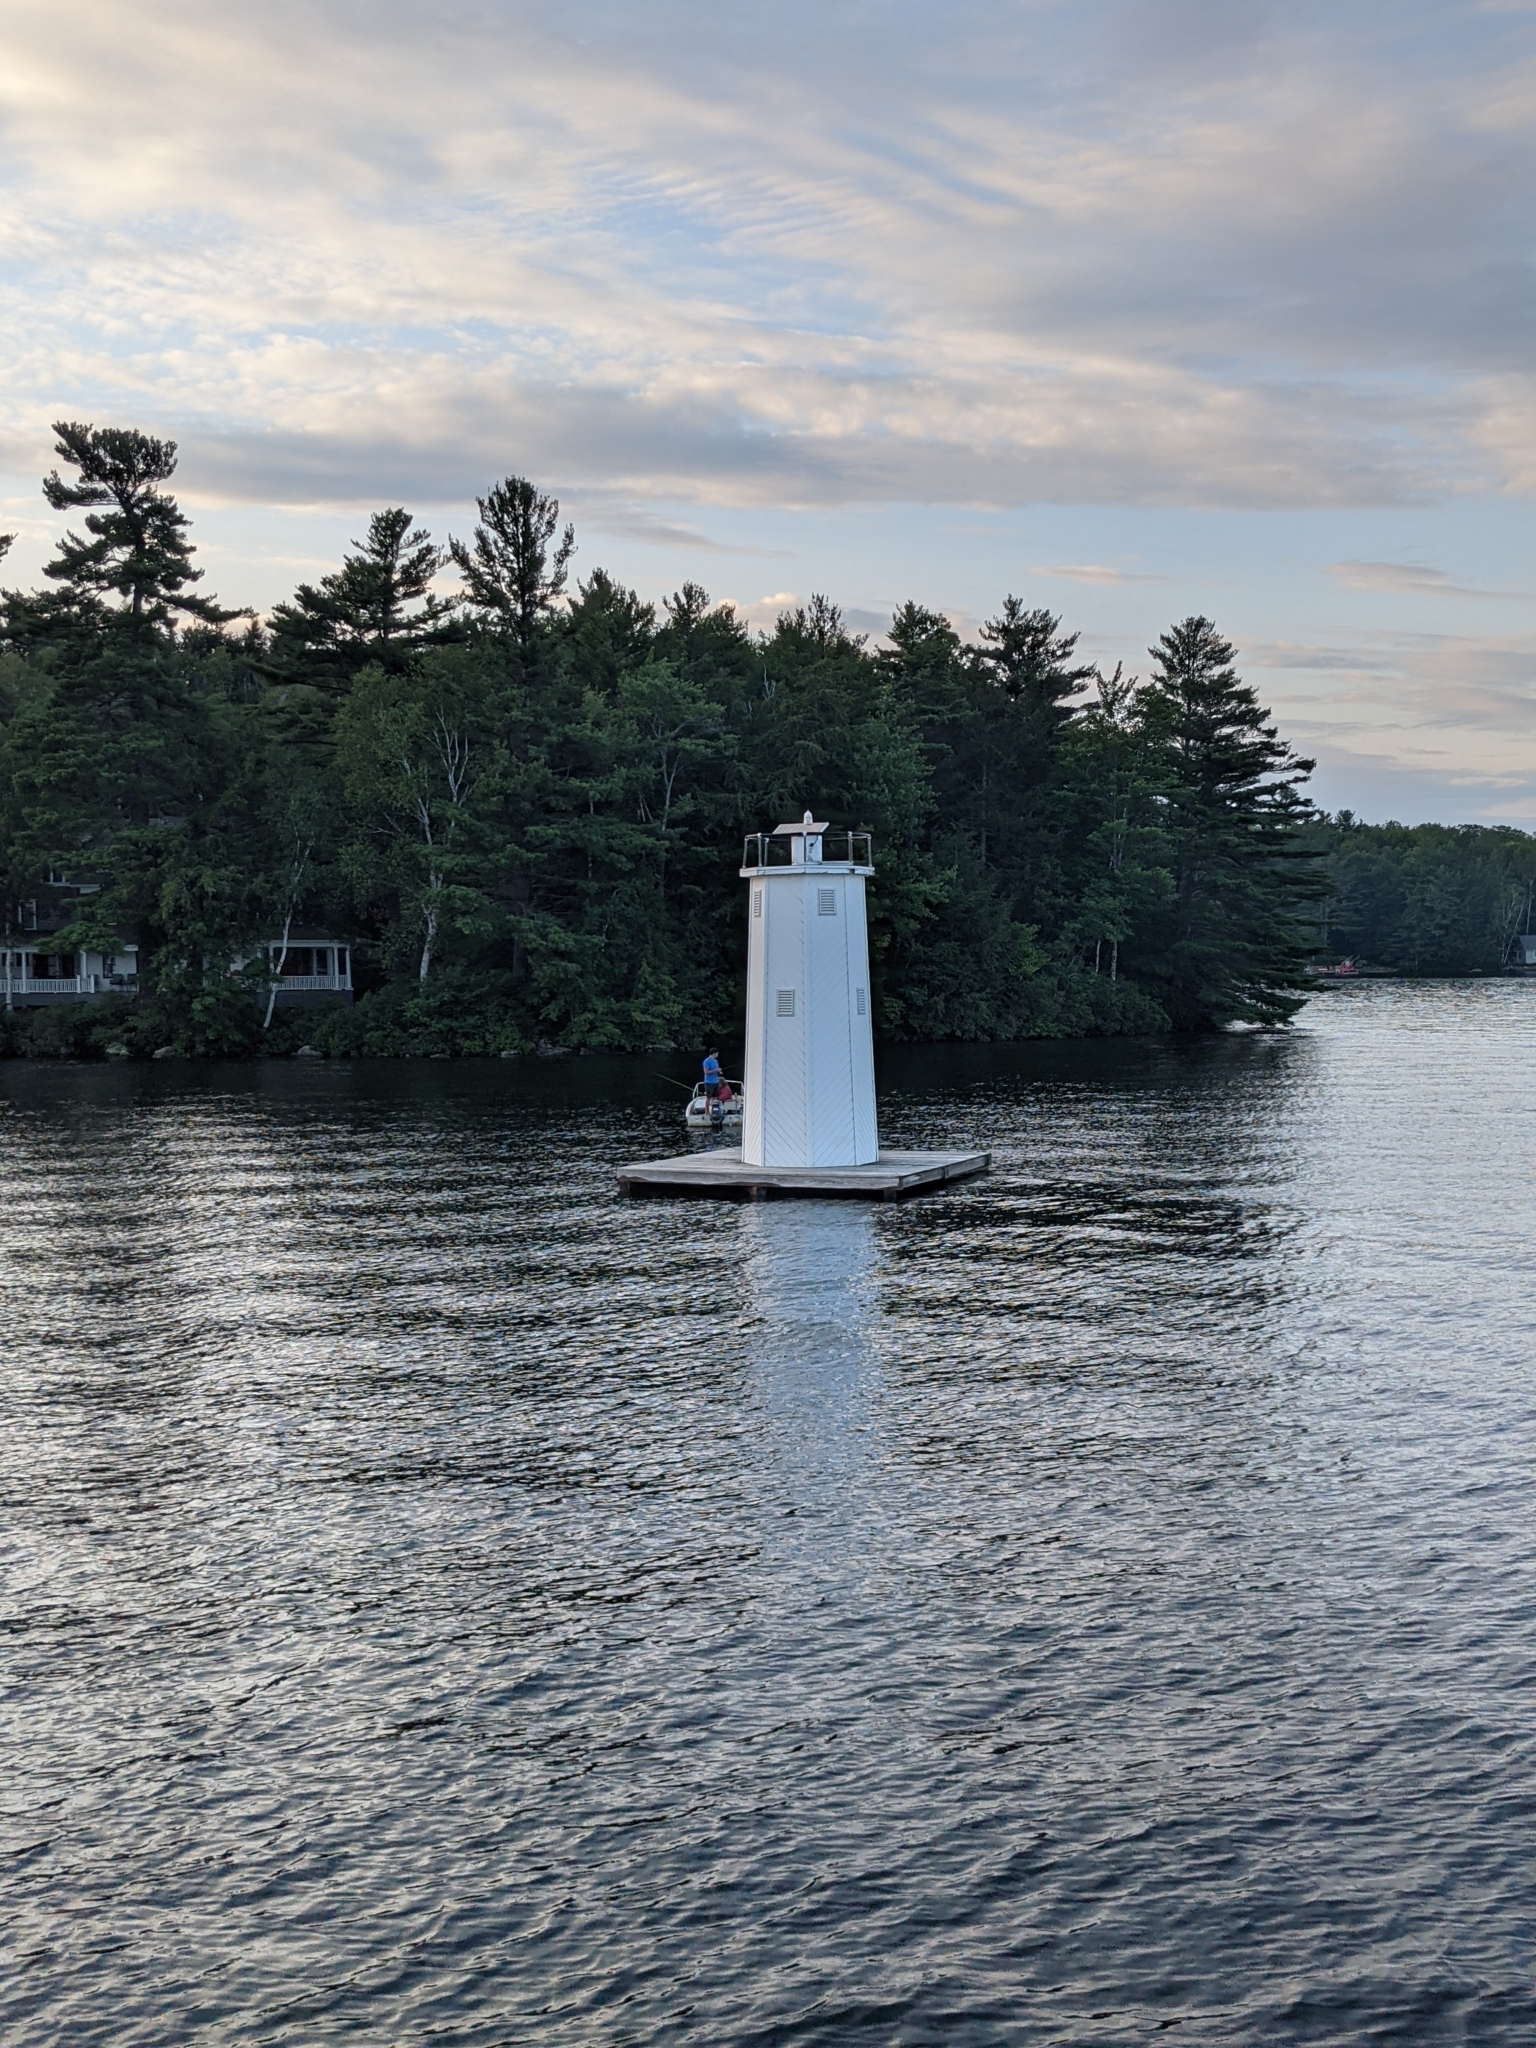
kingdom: Plantae
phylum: Tracheophyta
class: Pinopsida
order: Pinales
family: Pinaceae
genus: Pinus
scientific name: Pinus strobus
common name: Weymouth pine
